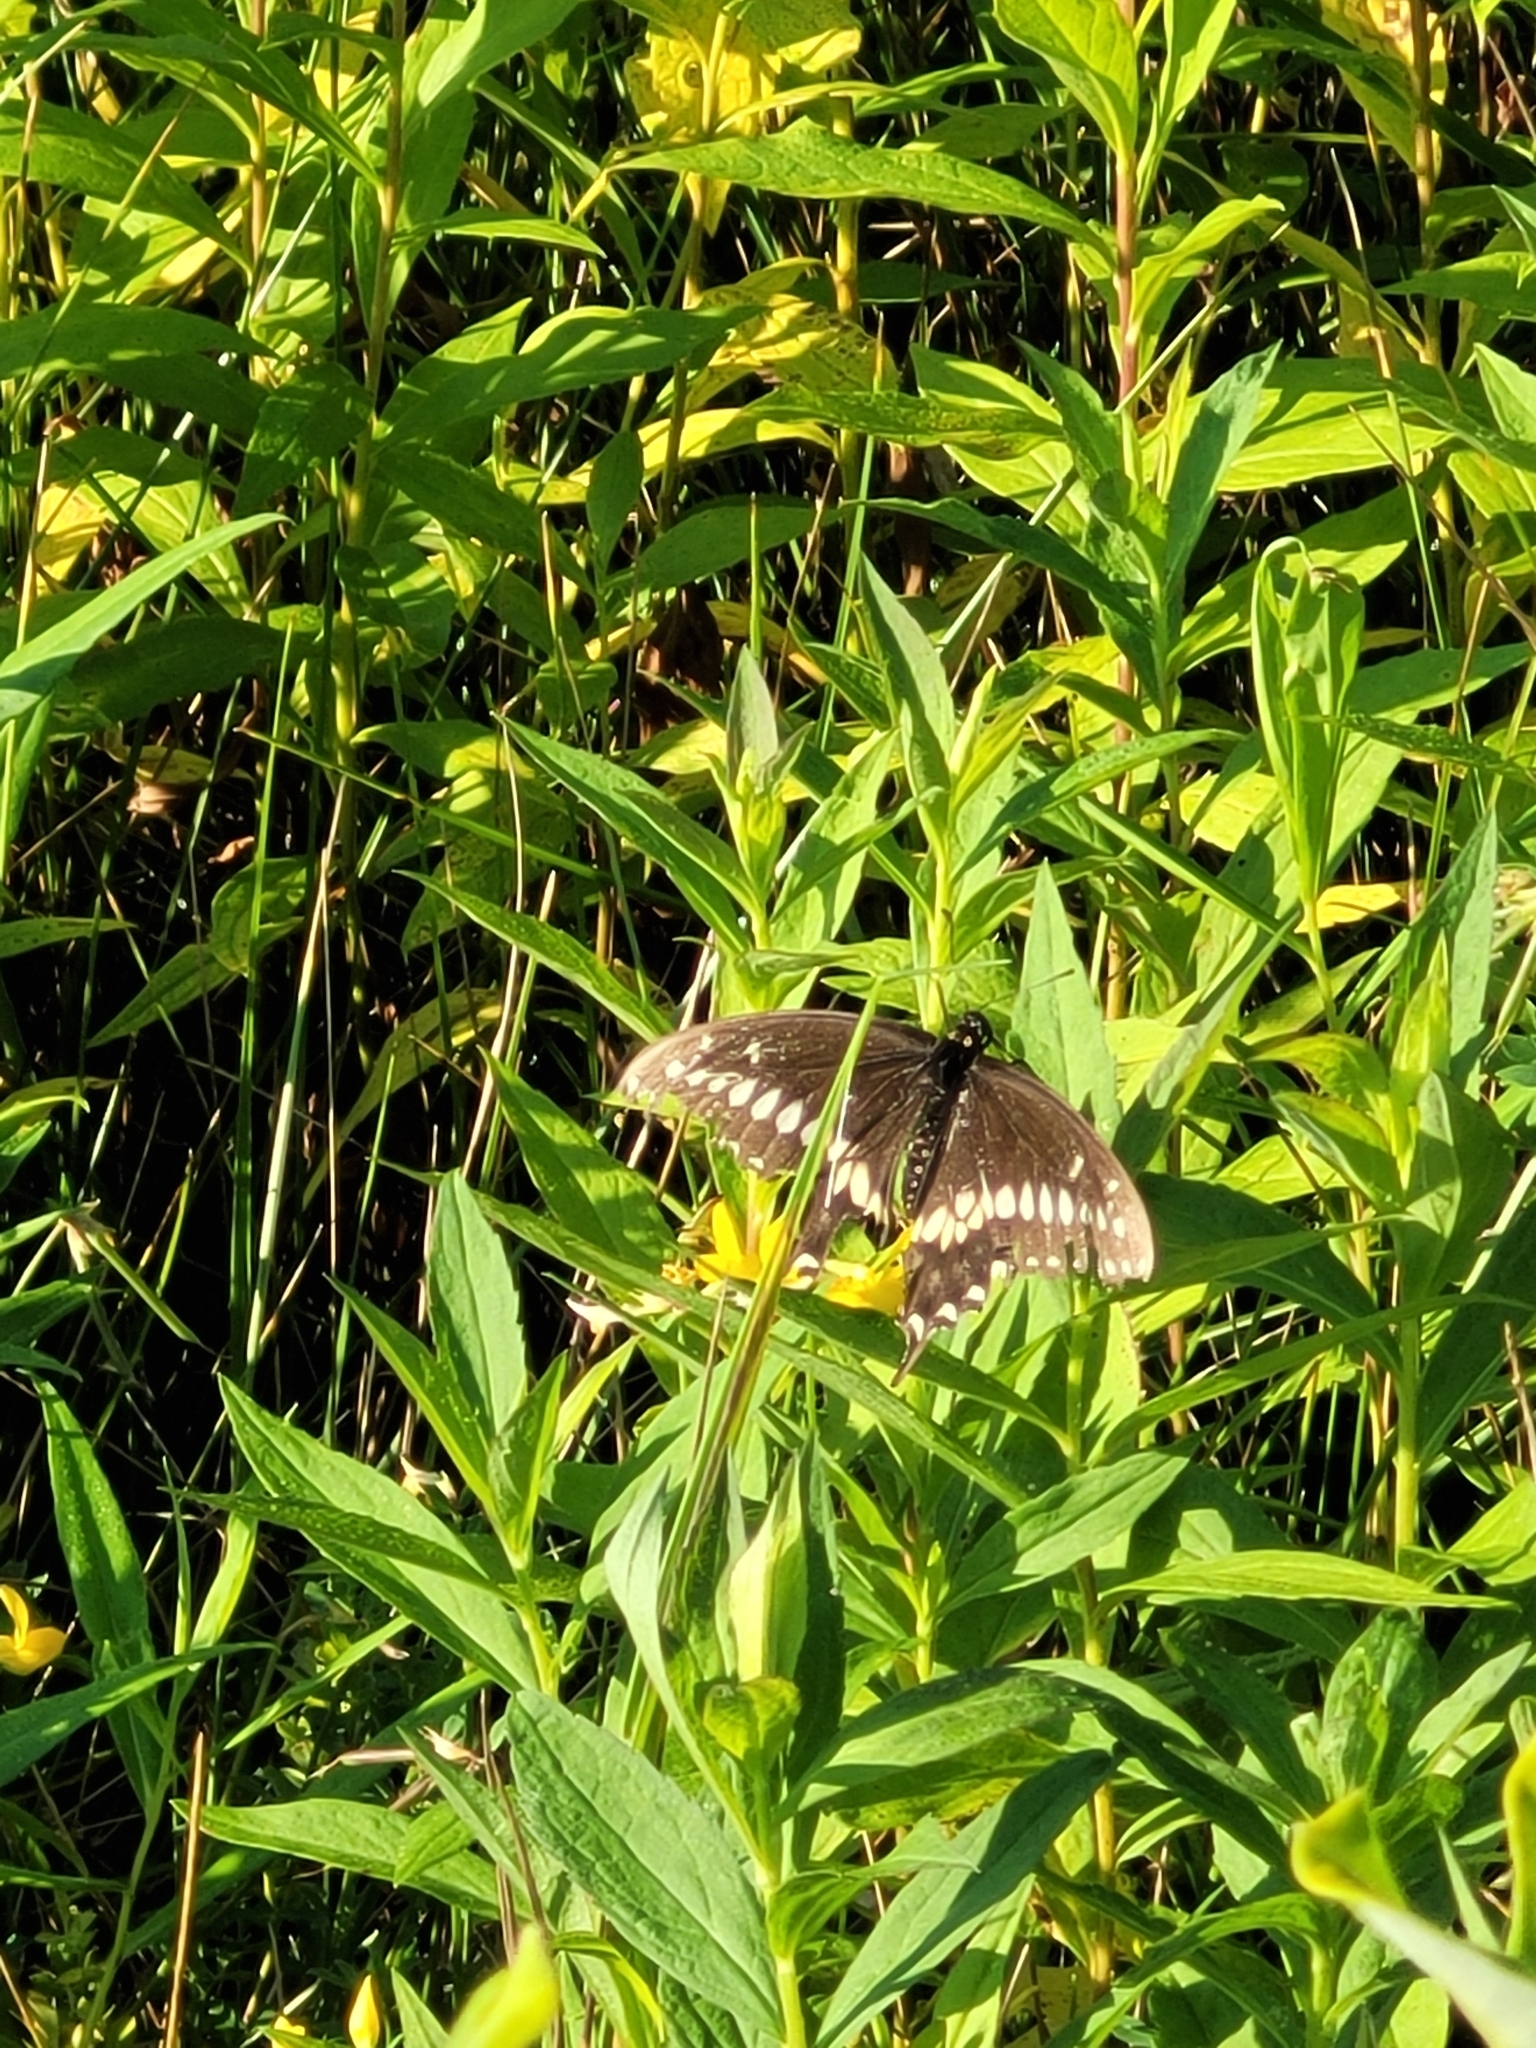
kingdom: Animalia
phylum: Arthropoda
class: Insecta
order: Lepidoptera
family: Papilionidae
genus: Papilio
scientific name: Papilio polyxenes
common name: Black swallowtail
